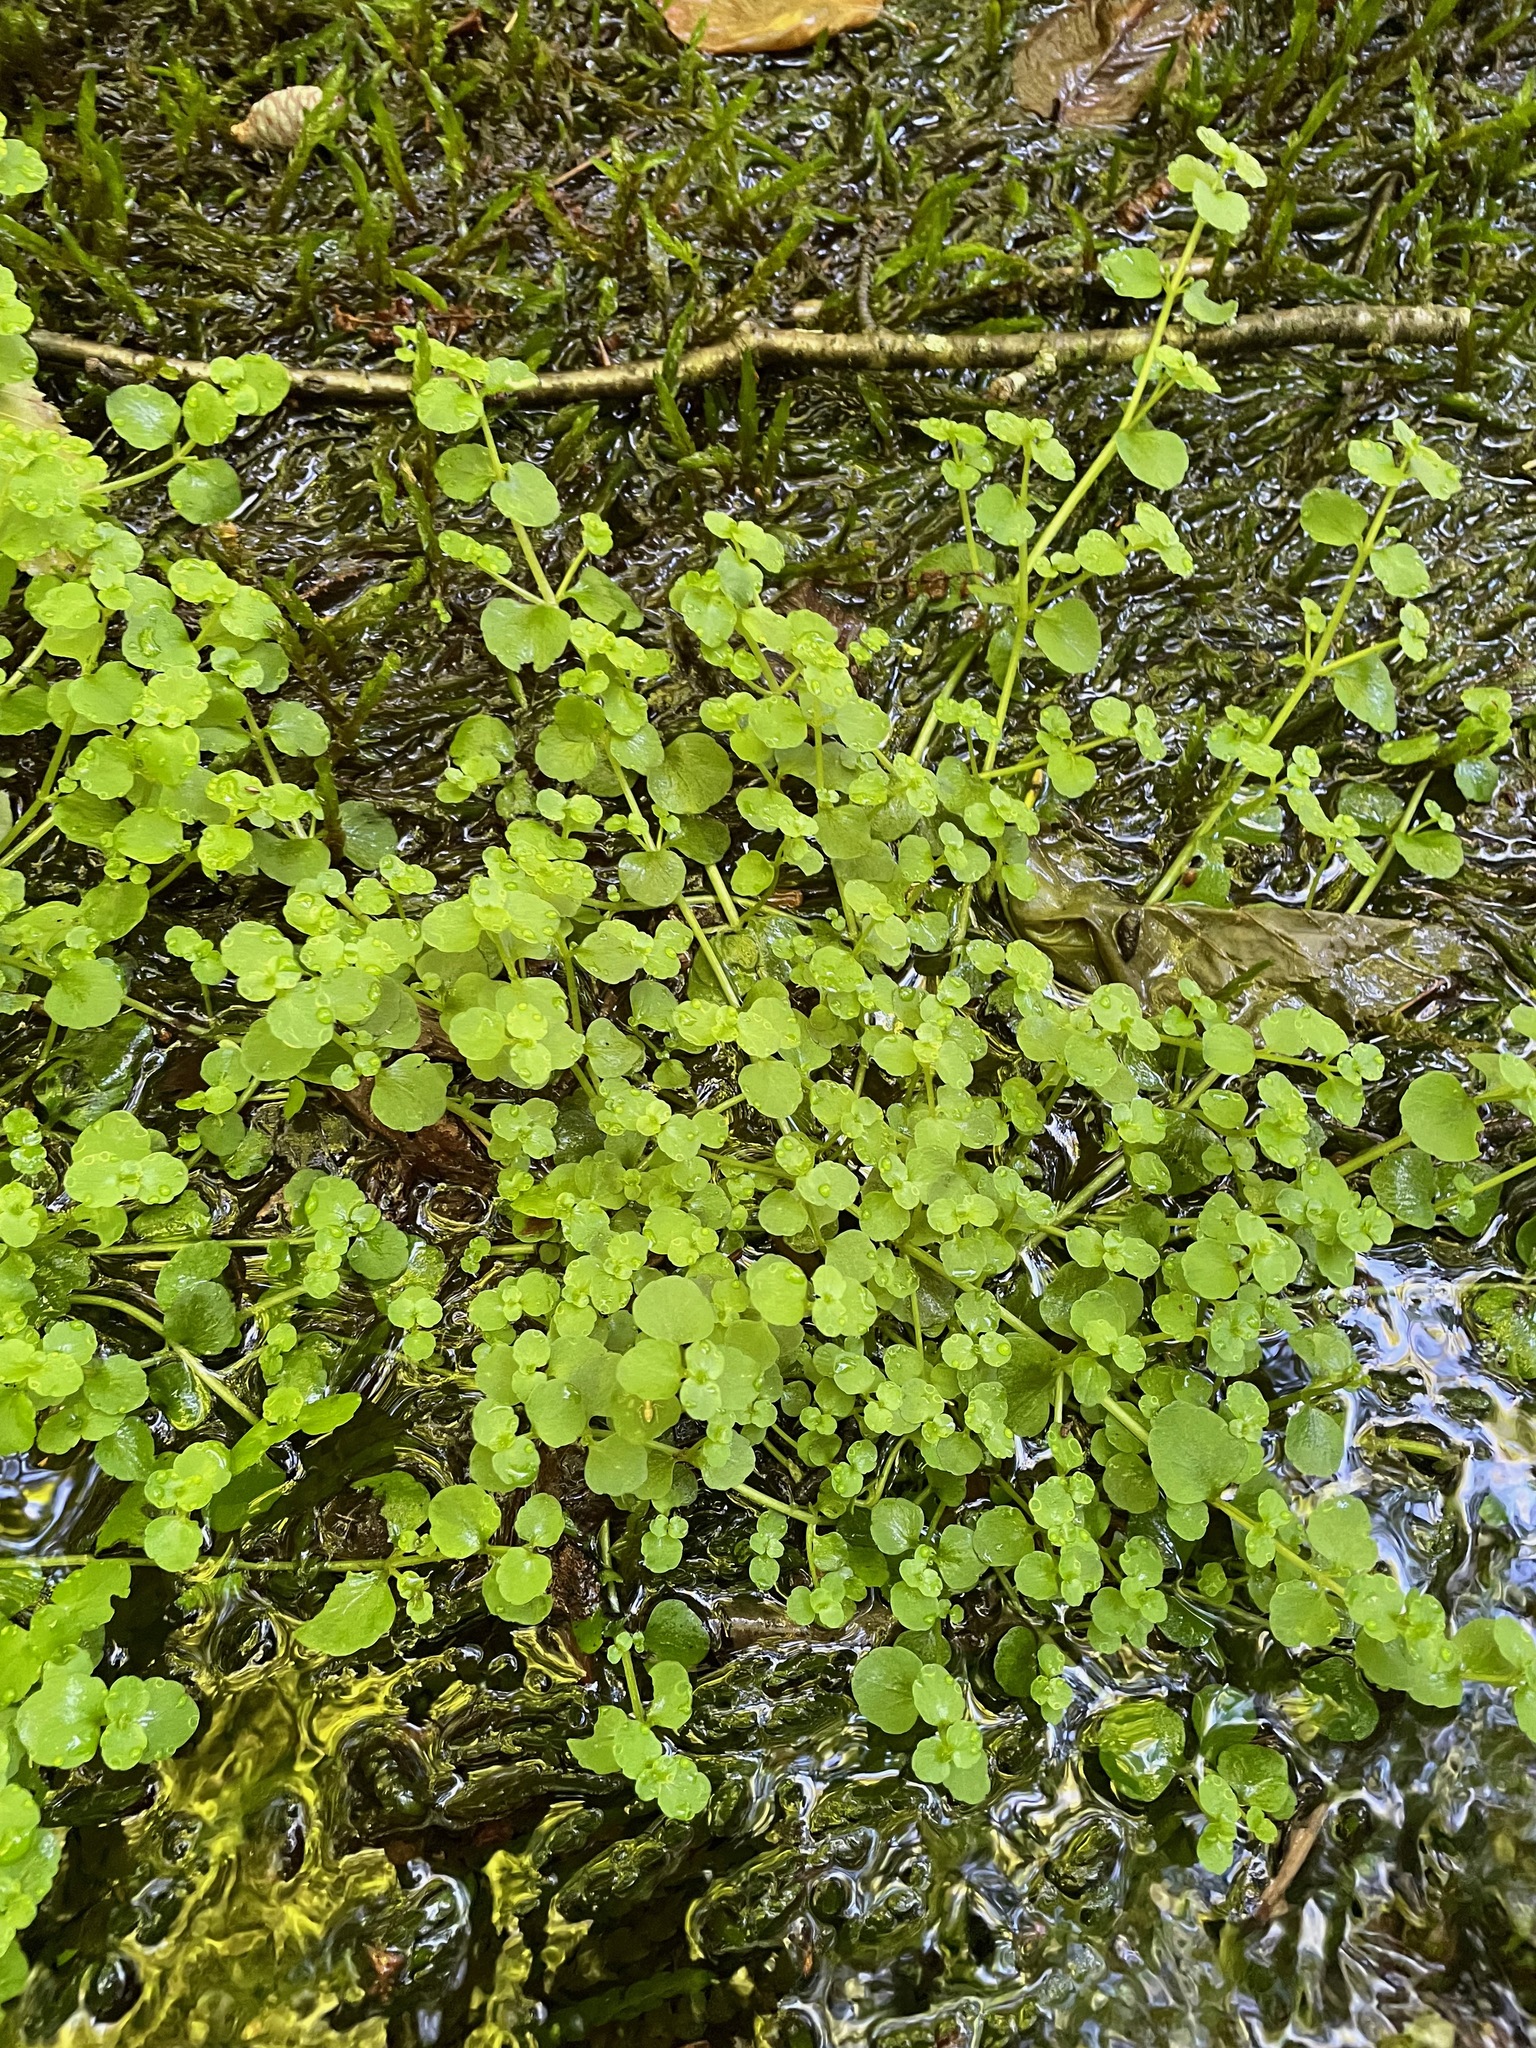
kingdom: Plantae
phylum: Tracheophyta
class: Magnoliopsida
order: Saxifragales
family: Saxifragaceae
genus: Chrysosplenium
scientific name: Chrysosplenium americanum
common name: American golden-saxifrage
